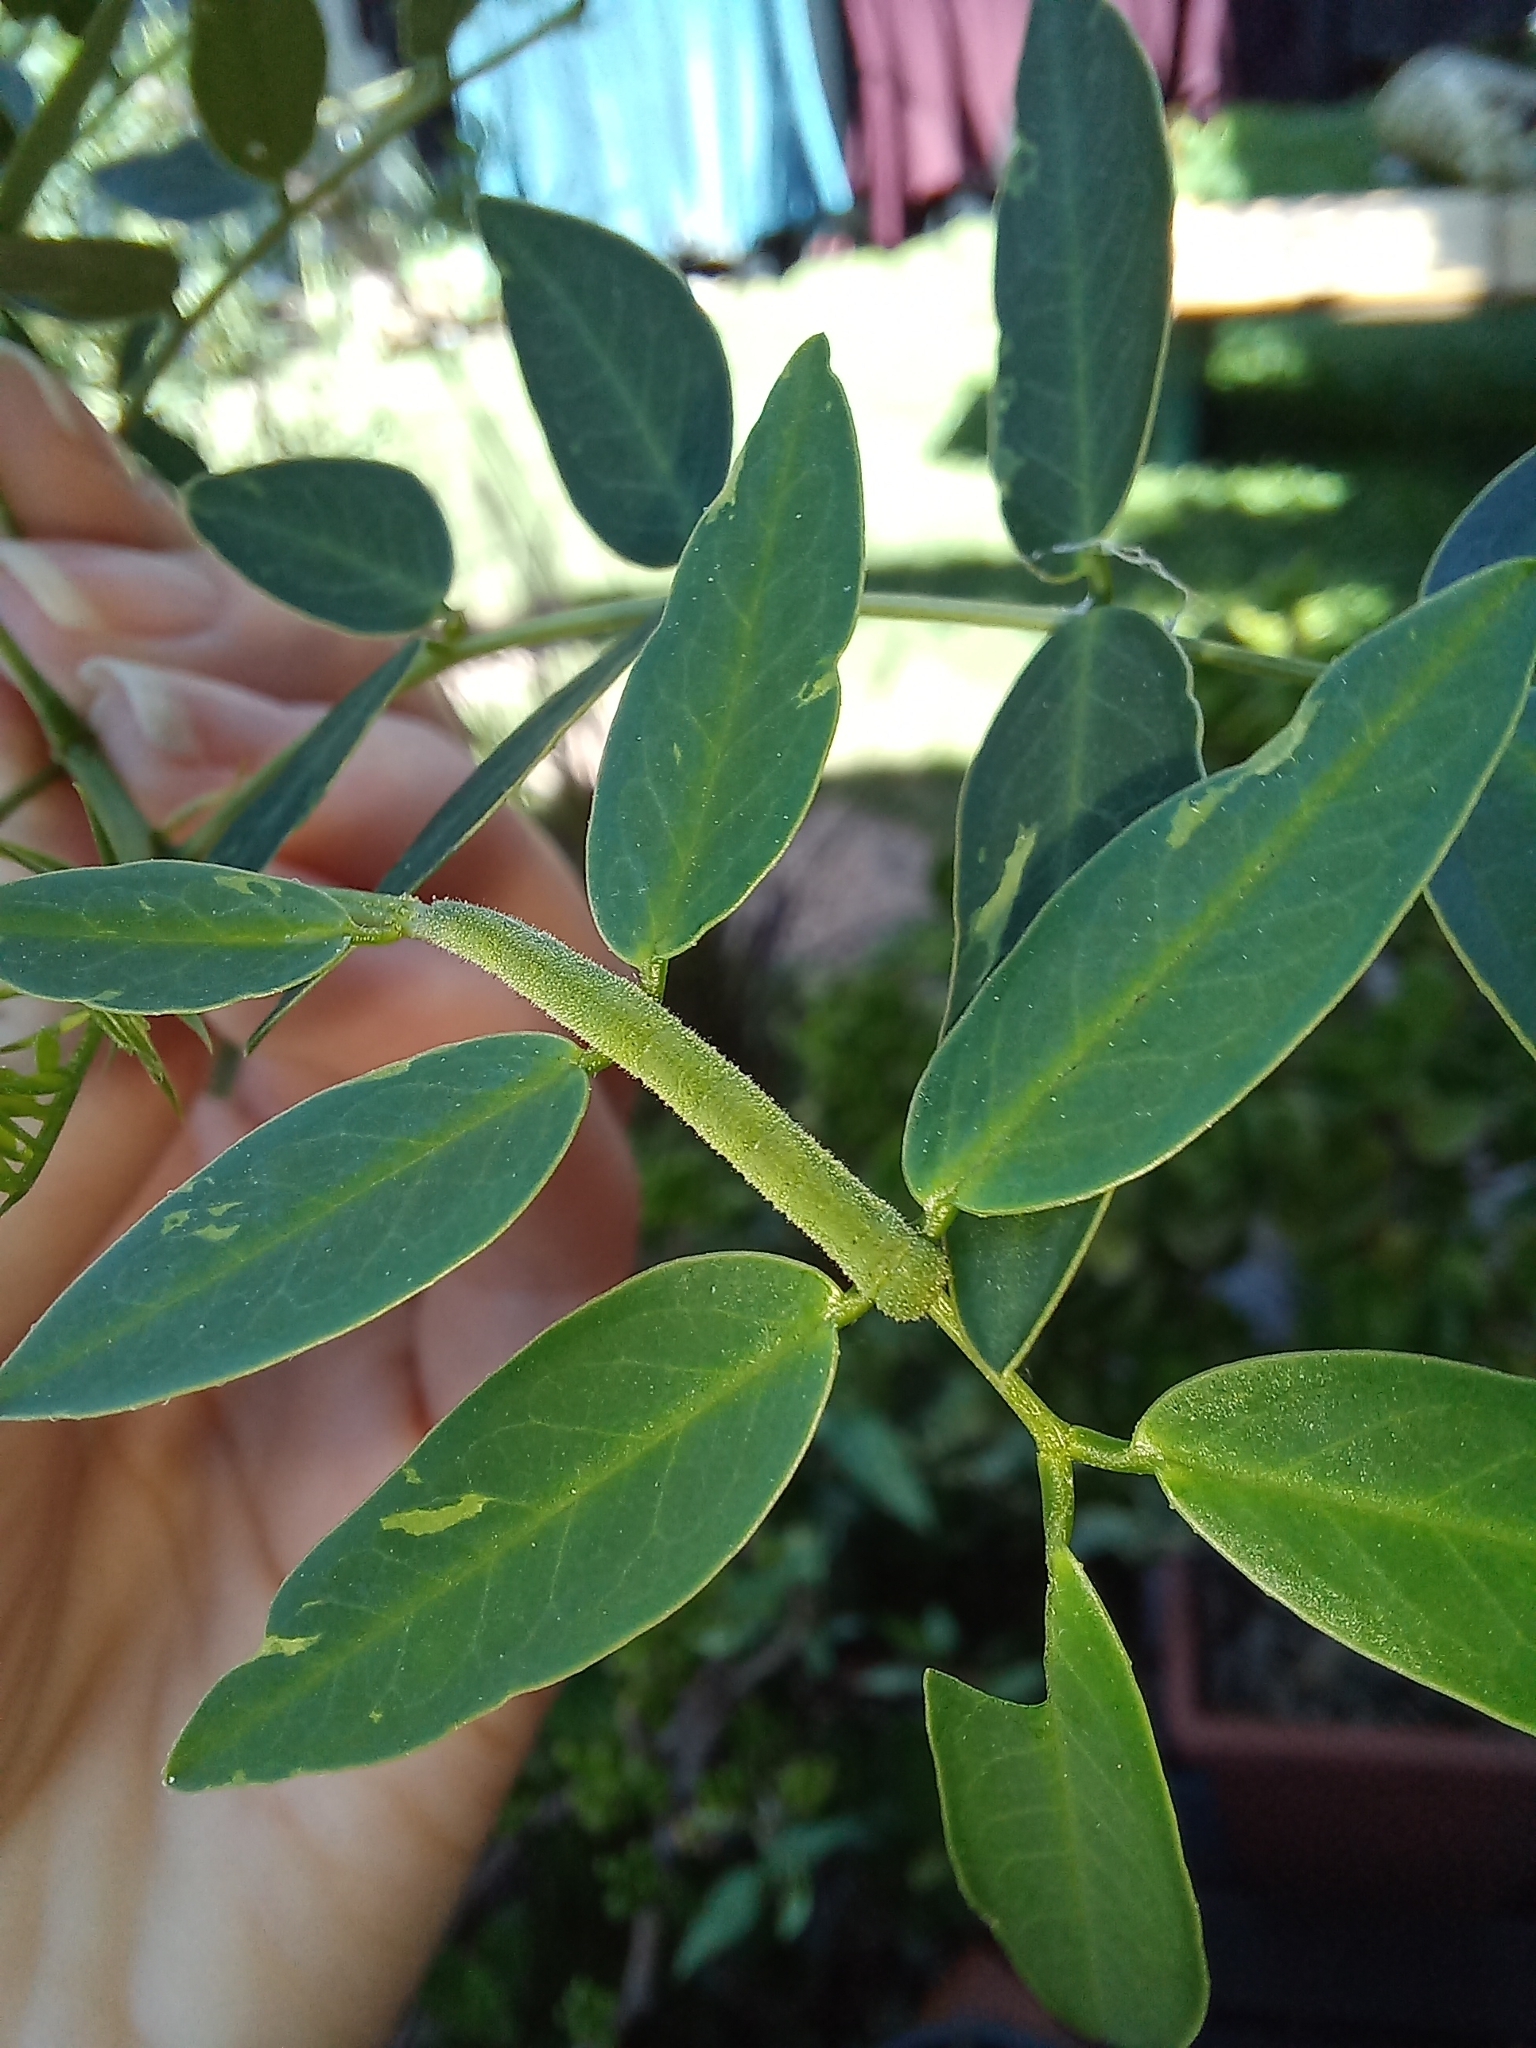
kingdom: Animalia
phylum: Arthropoda
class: Insecta
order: Lepidoptera
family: Pieridae
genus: Teriocolias
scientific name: Teriocolias
